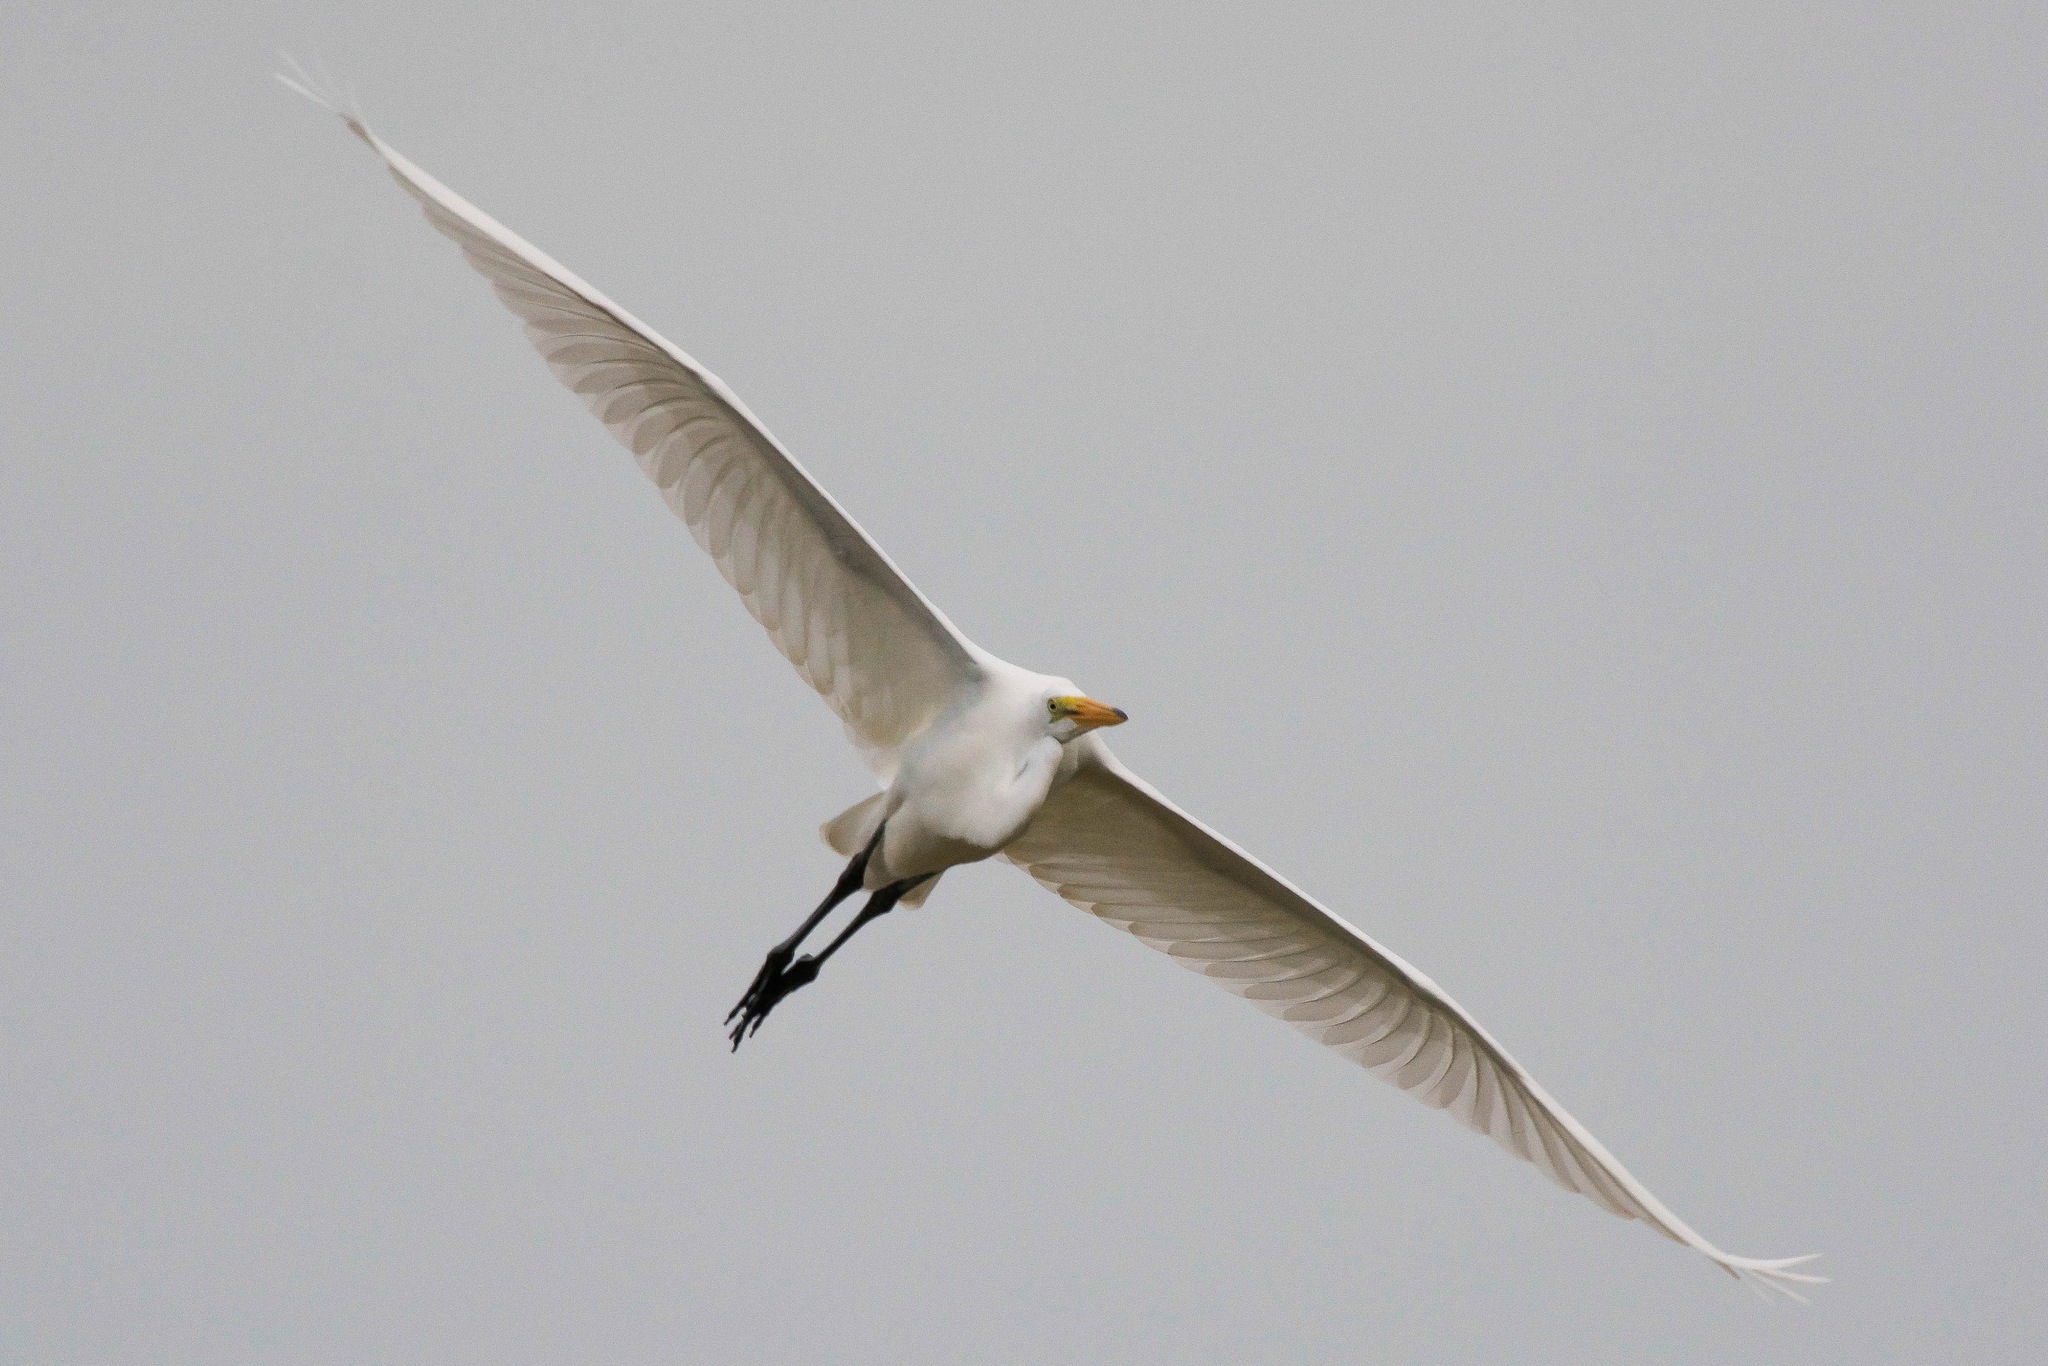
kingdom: Animalia
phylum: Chordata
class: Aves
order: Pelecaniformes
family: Ardeidae
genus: Ardea
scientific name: Ardea alba
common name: Great egret
